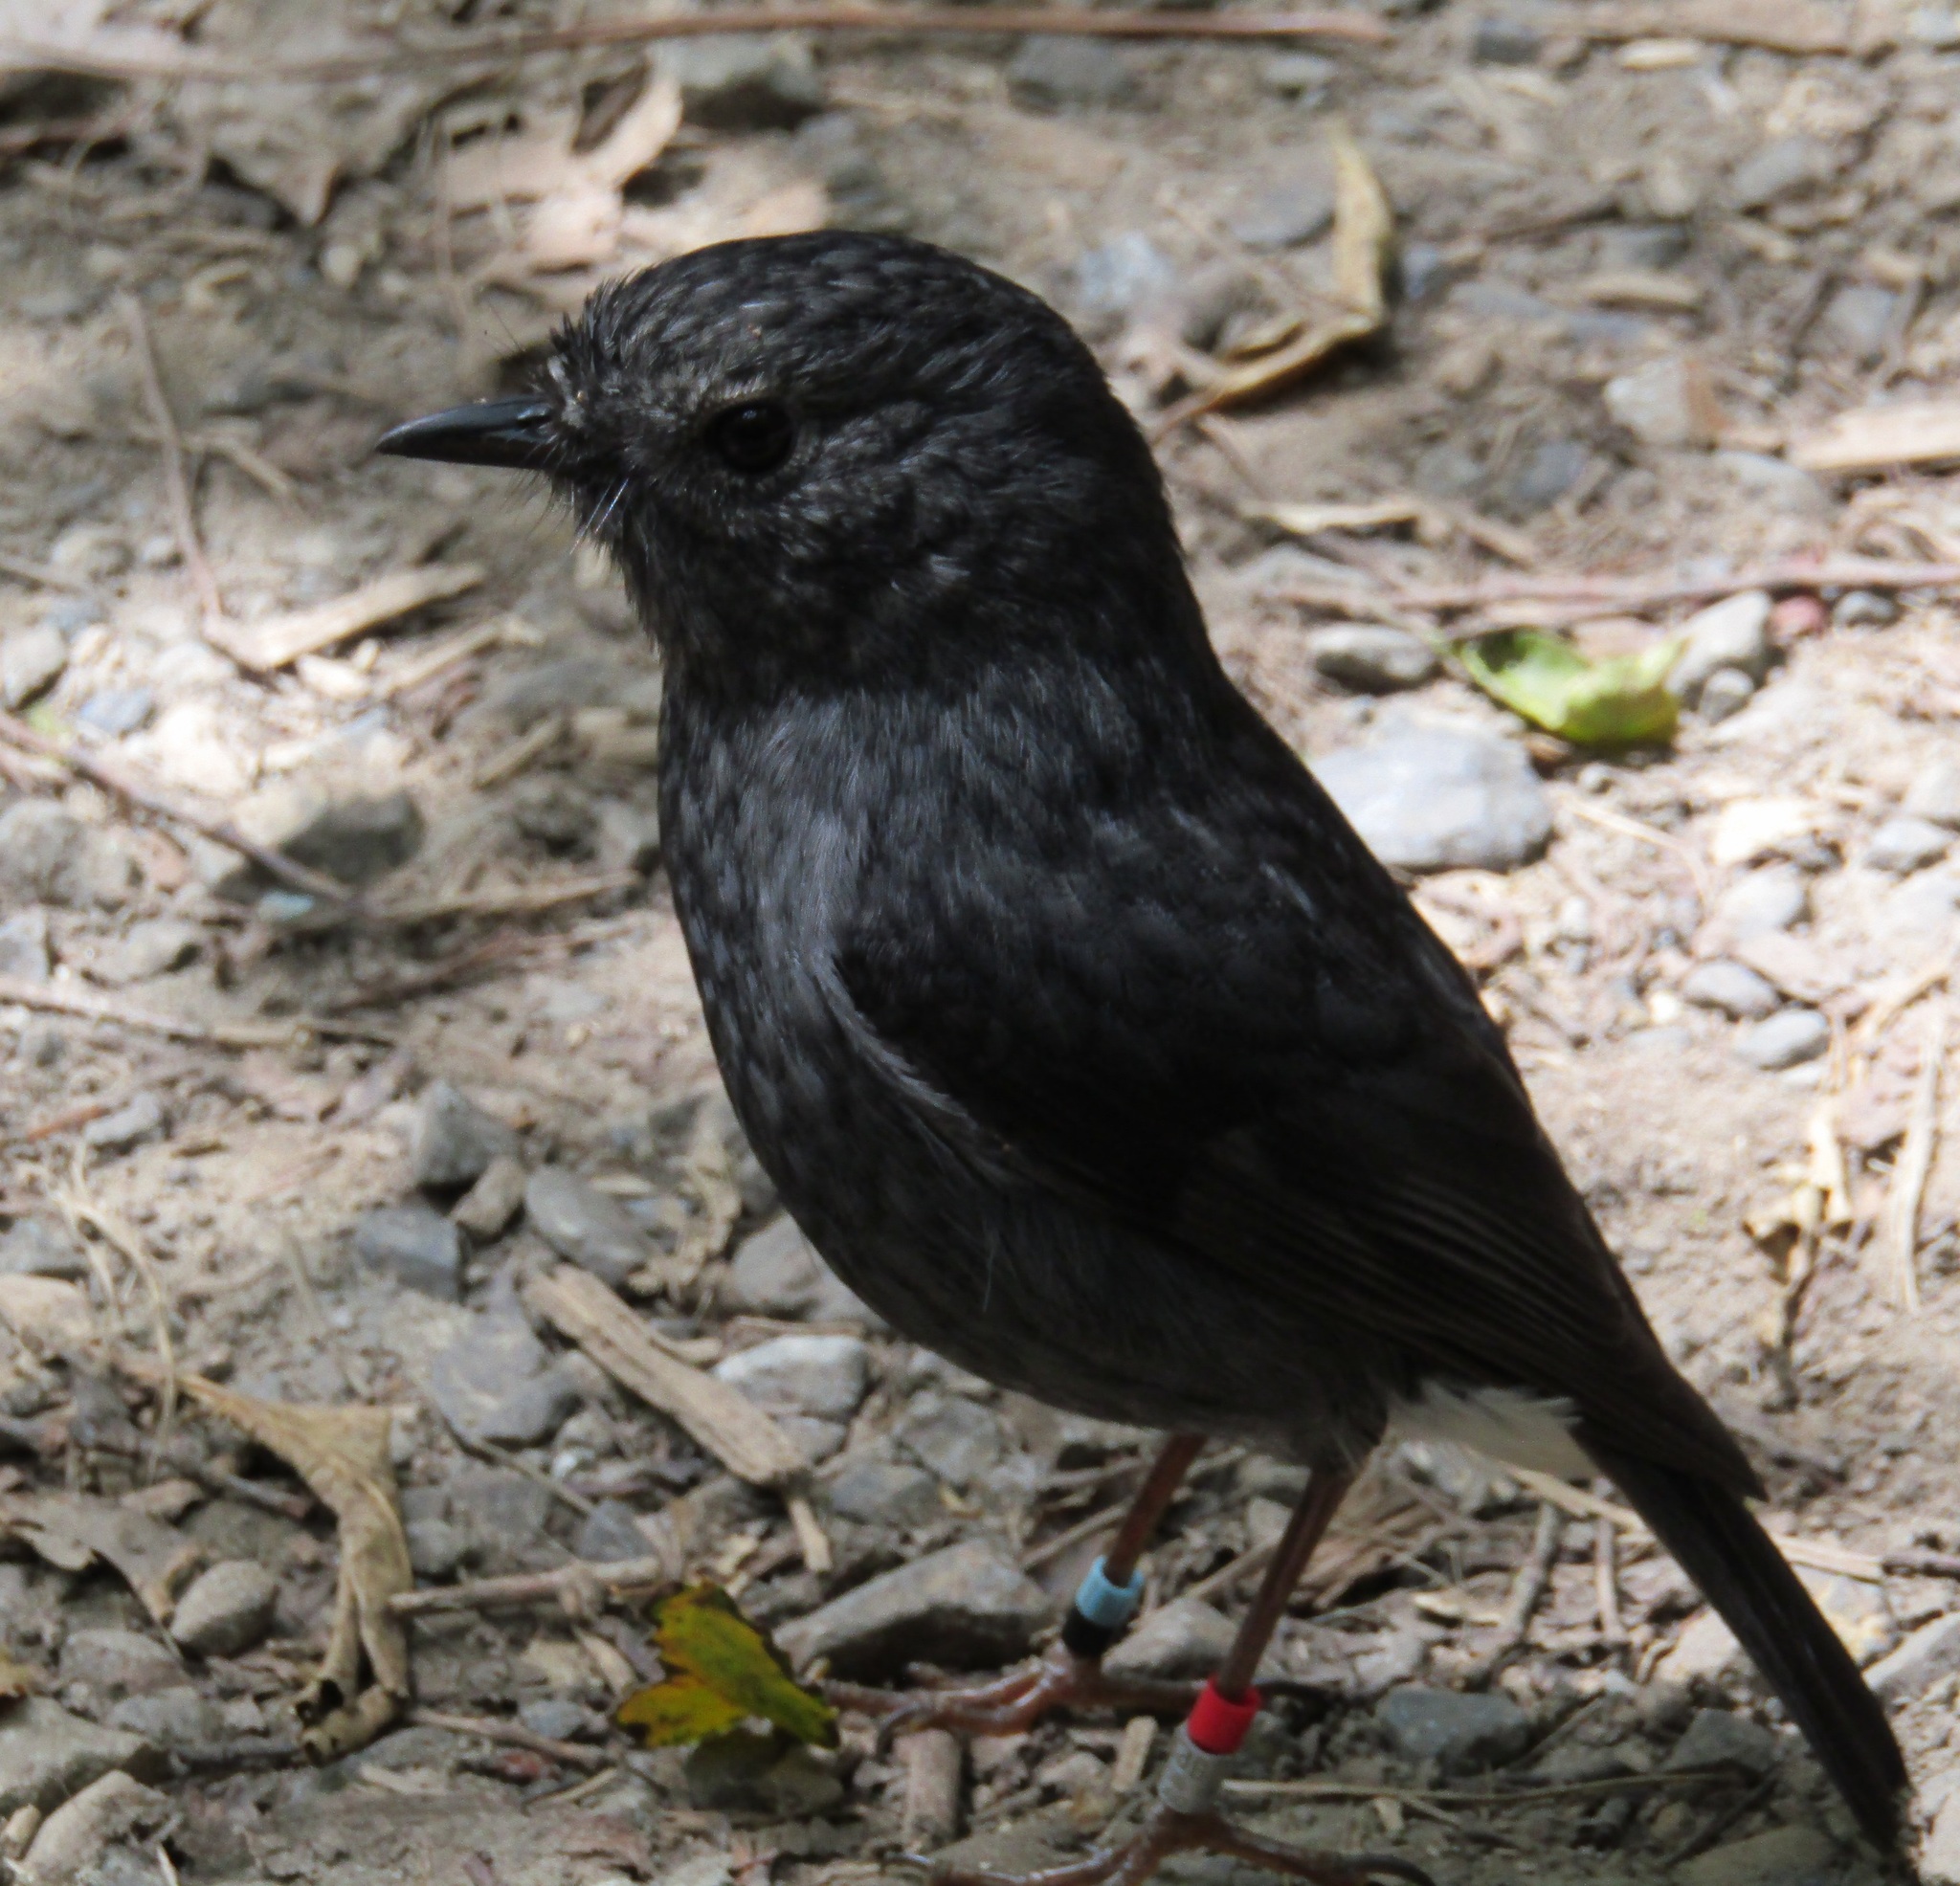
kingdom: Animalia
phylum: Chordata
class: Aves
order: Passeriformes
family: Petroicidae
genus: Petroica
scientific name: Petroica australis
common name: New zealand robin
